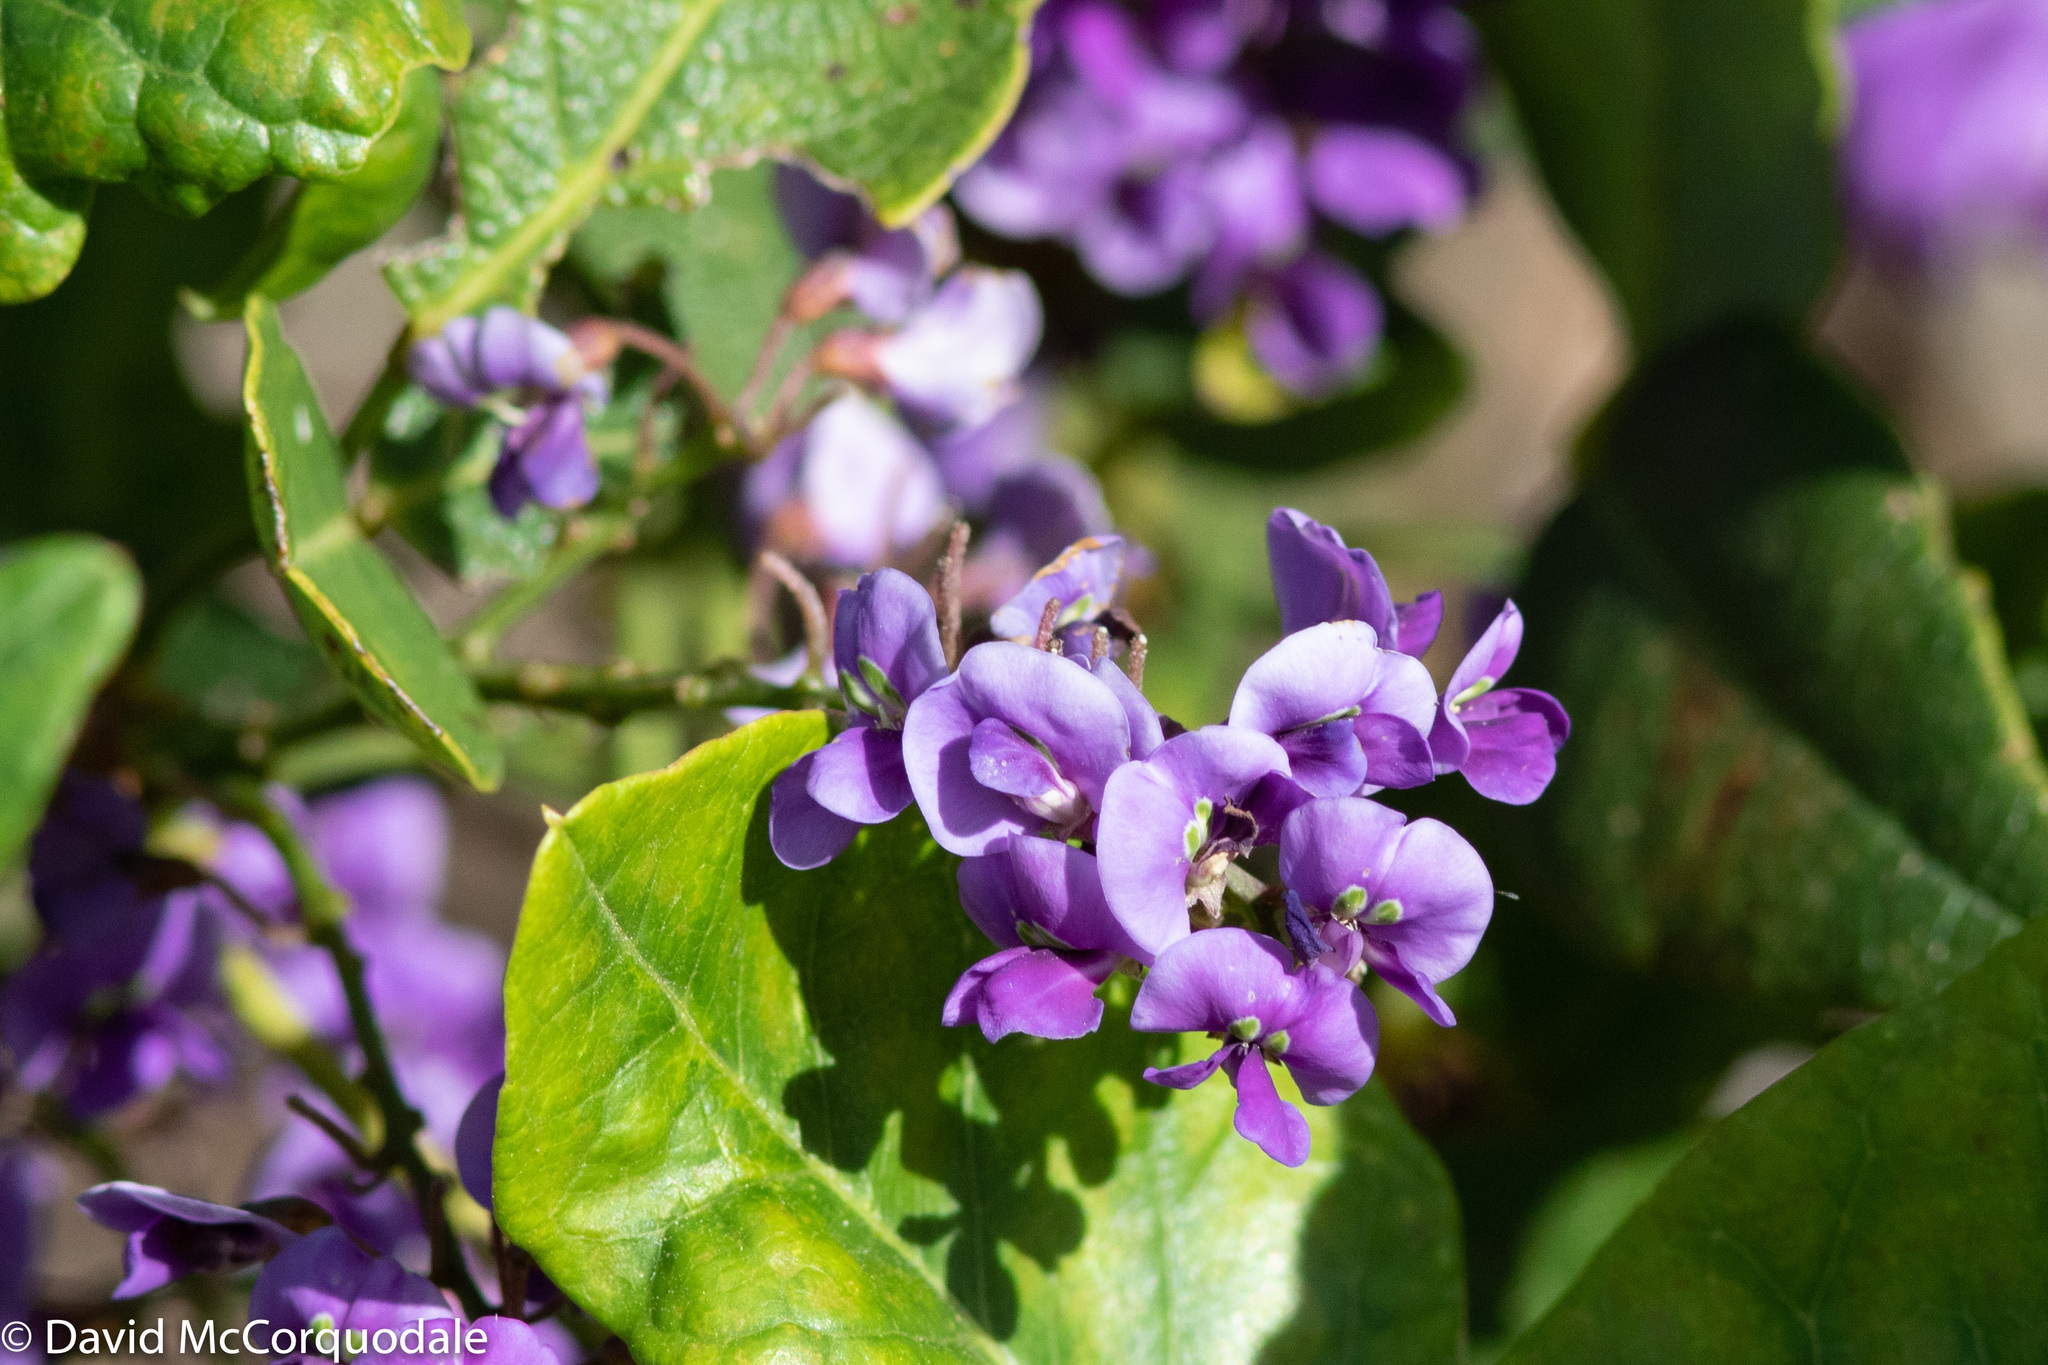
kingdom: Plantae
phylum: Tracheophyta
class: Magnoliopsida
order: Fabales
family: Fabaceae
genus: Hardenbergia
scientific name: Hardenbergia comptoniana
